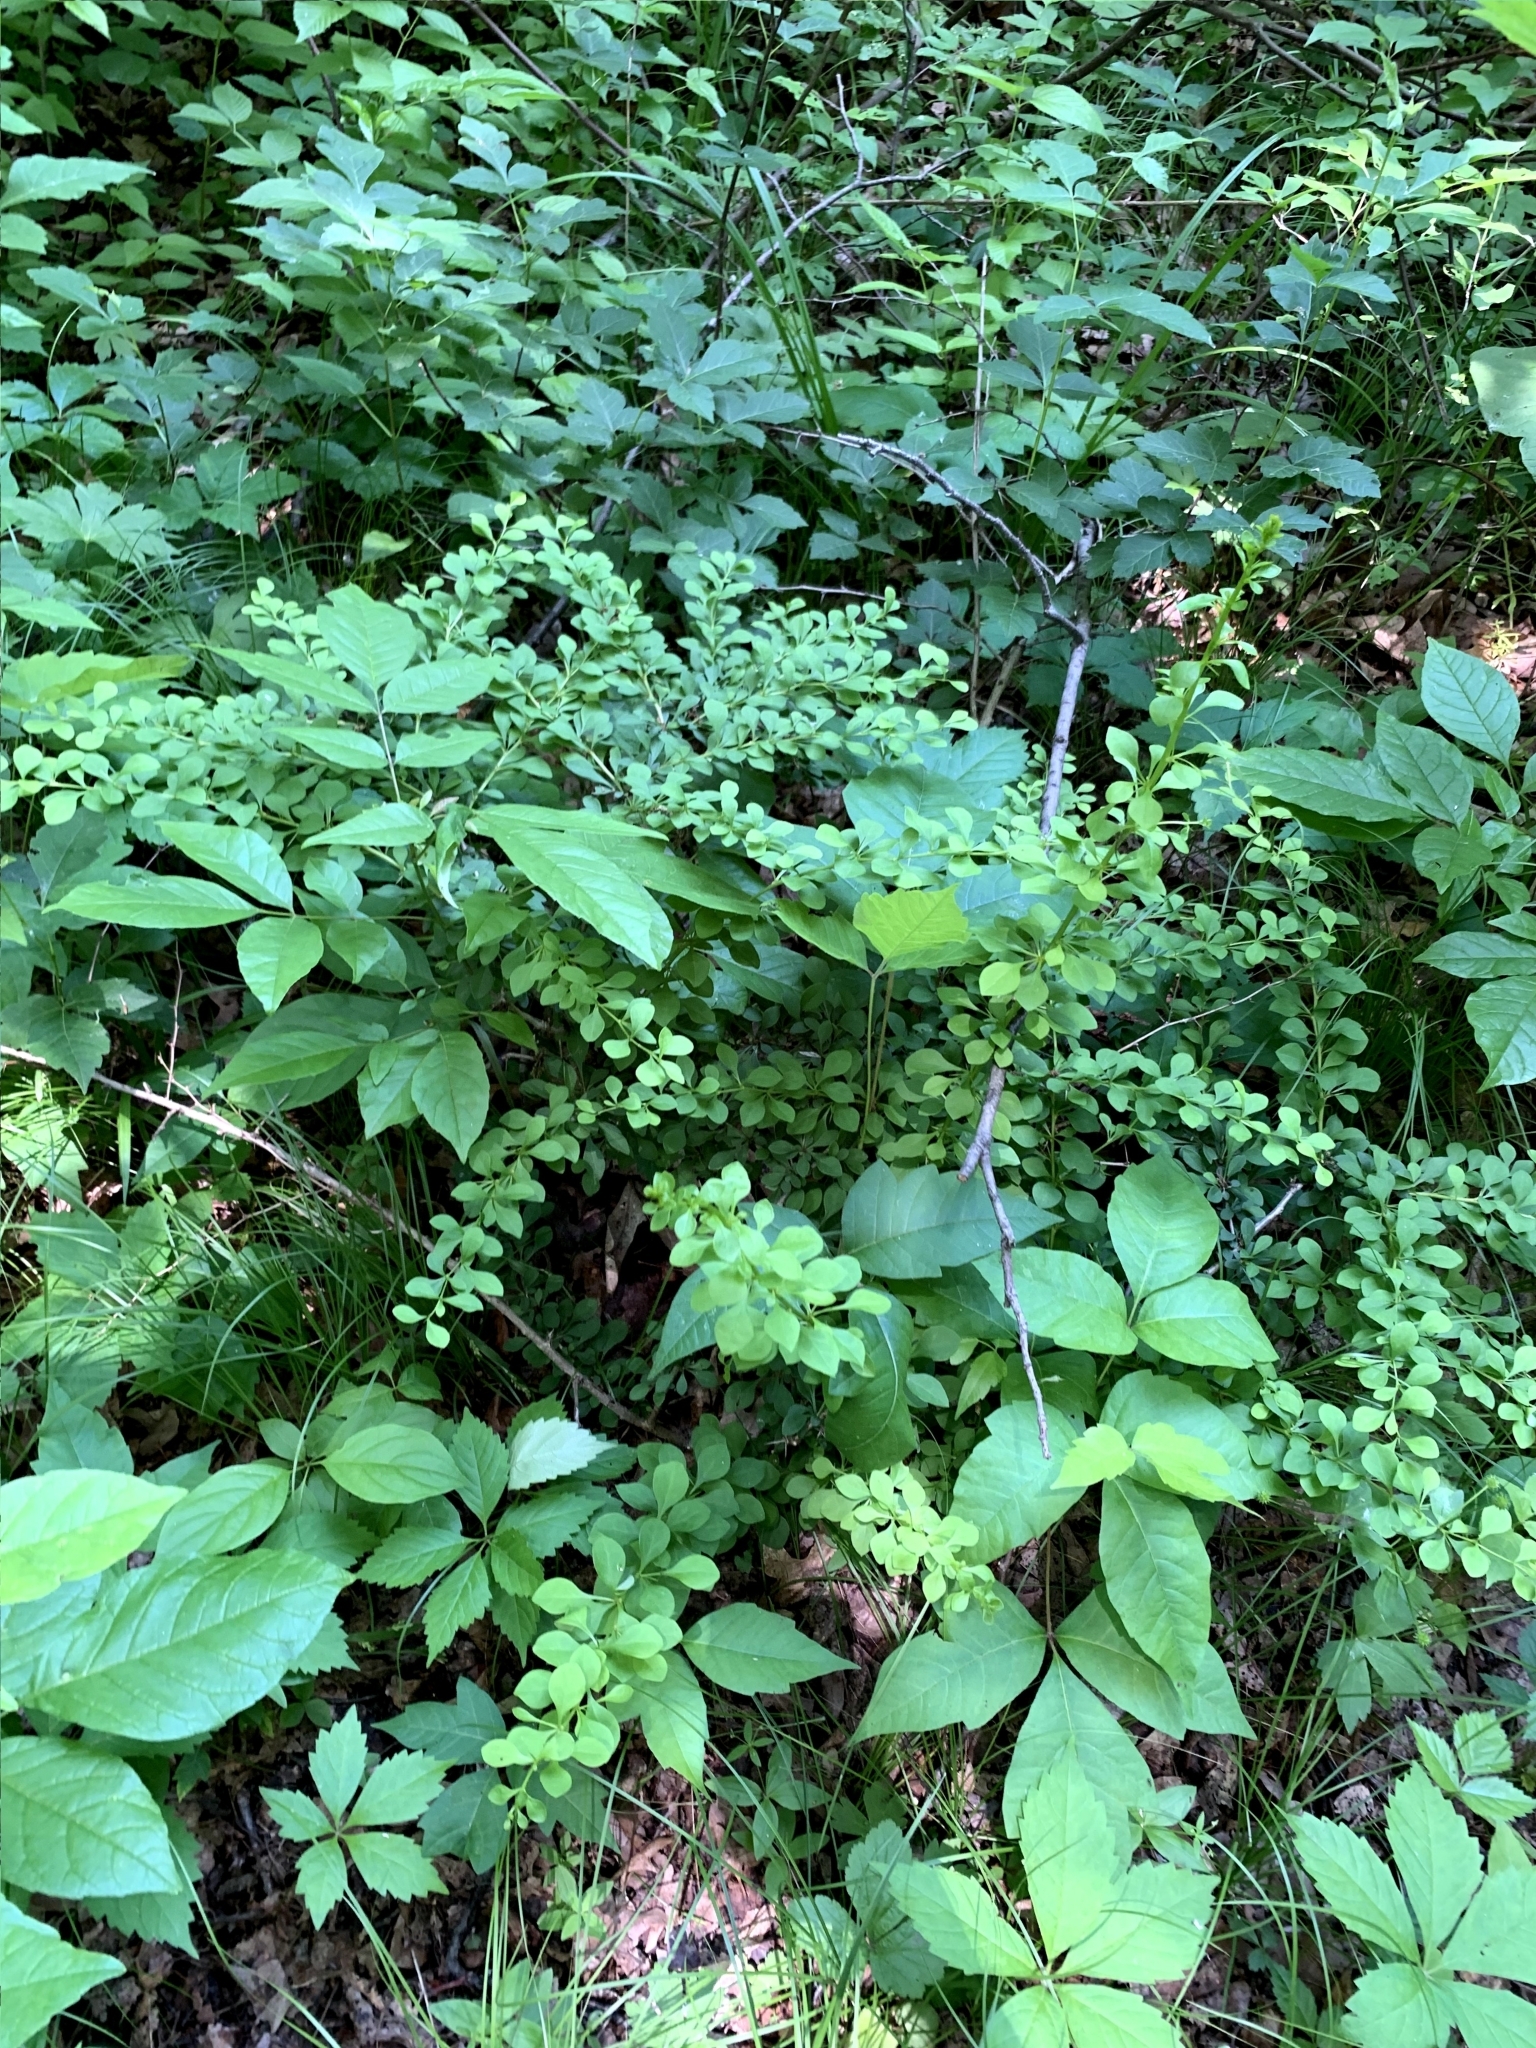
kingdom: Plantae
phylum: Tracheophyta
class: Magnoliopsida
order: Ranunculales
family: Berberidaceae
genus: Berberis
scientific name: Berberis thunbergii
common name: Japanese barberry
